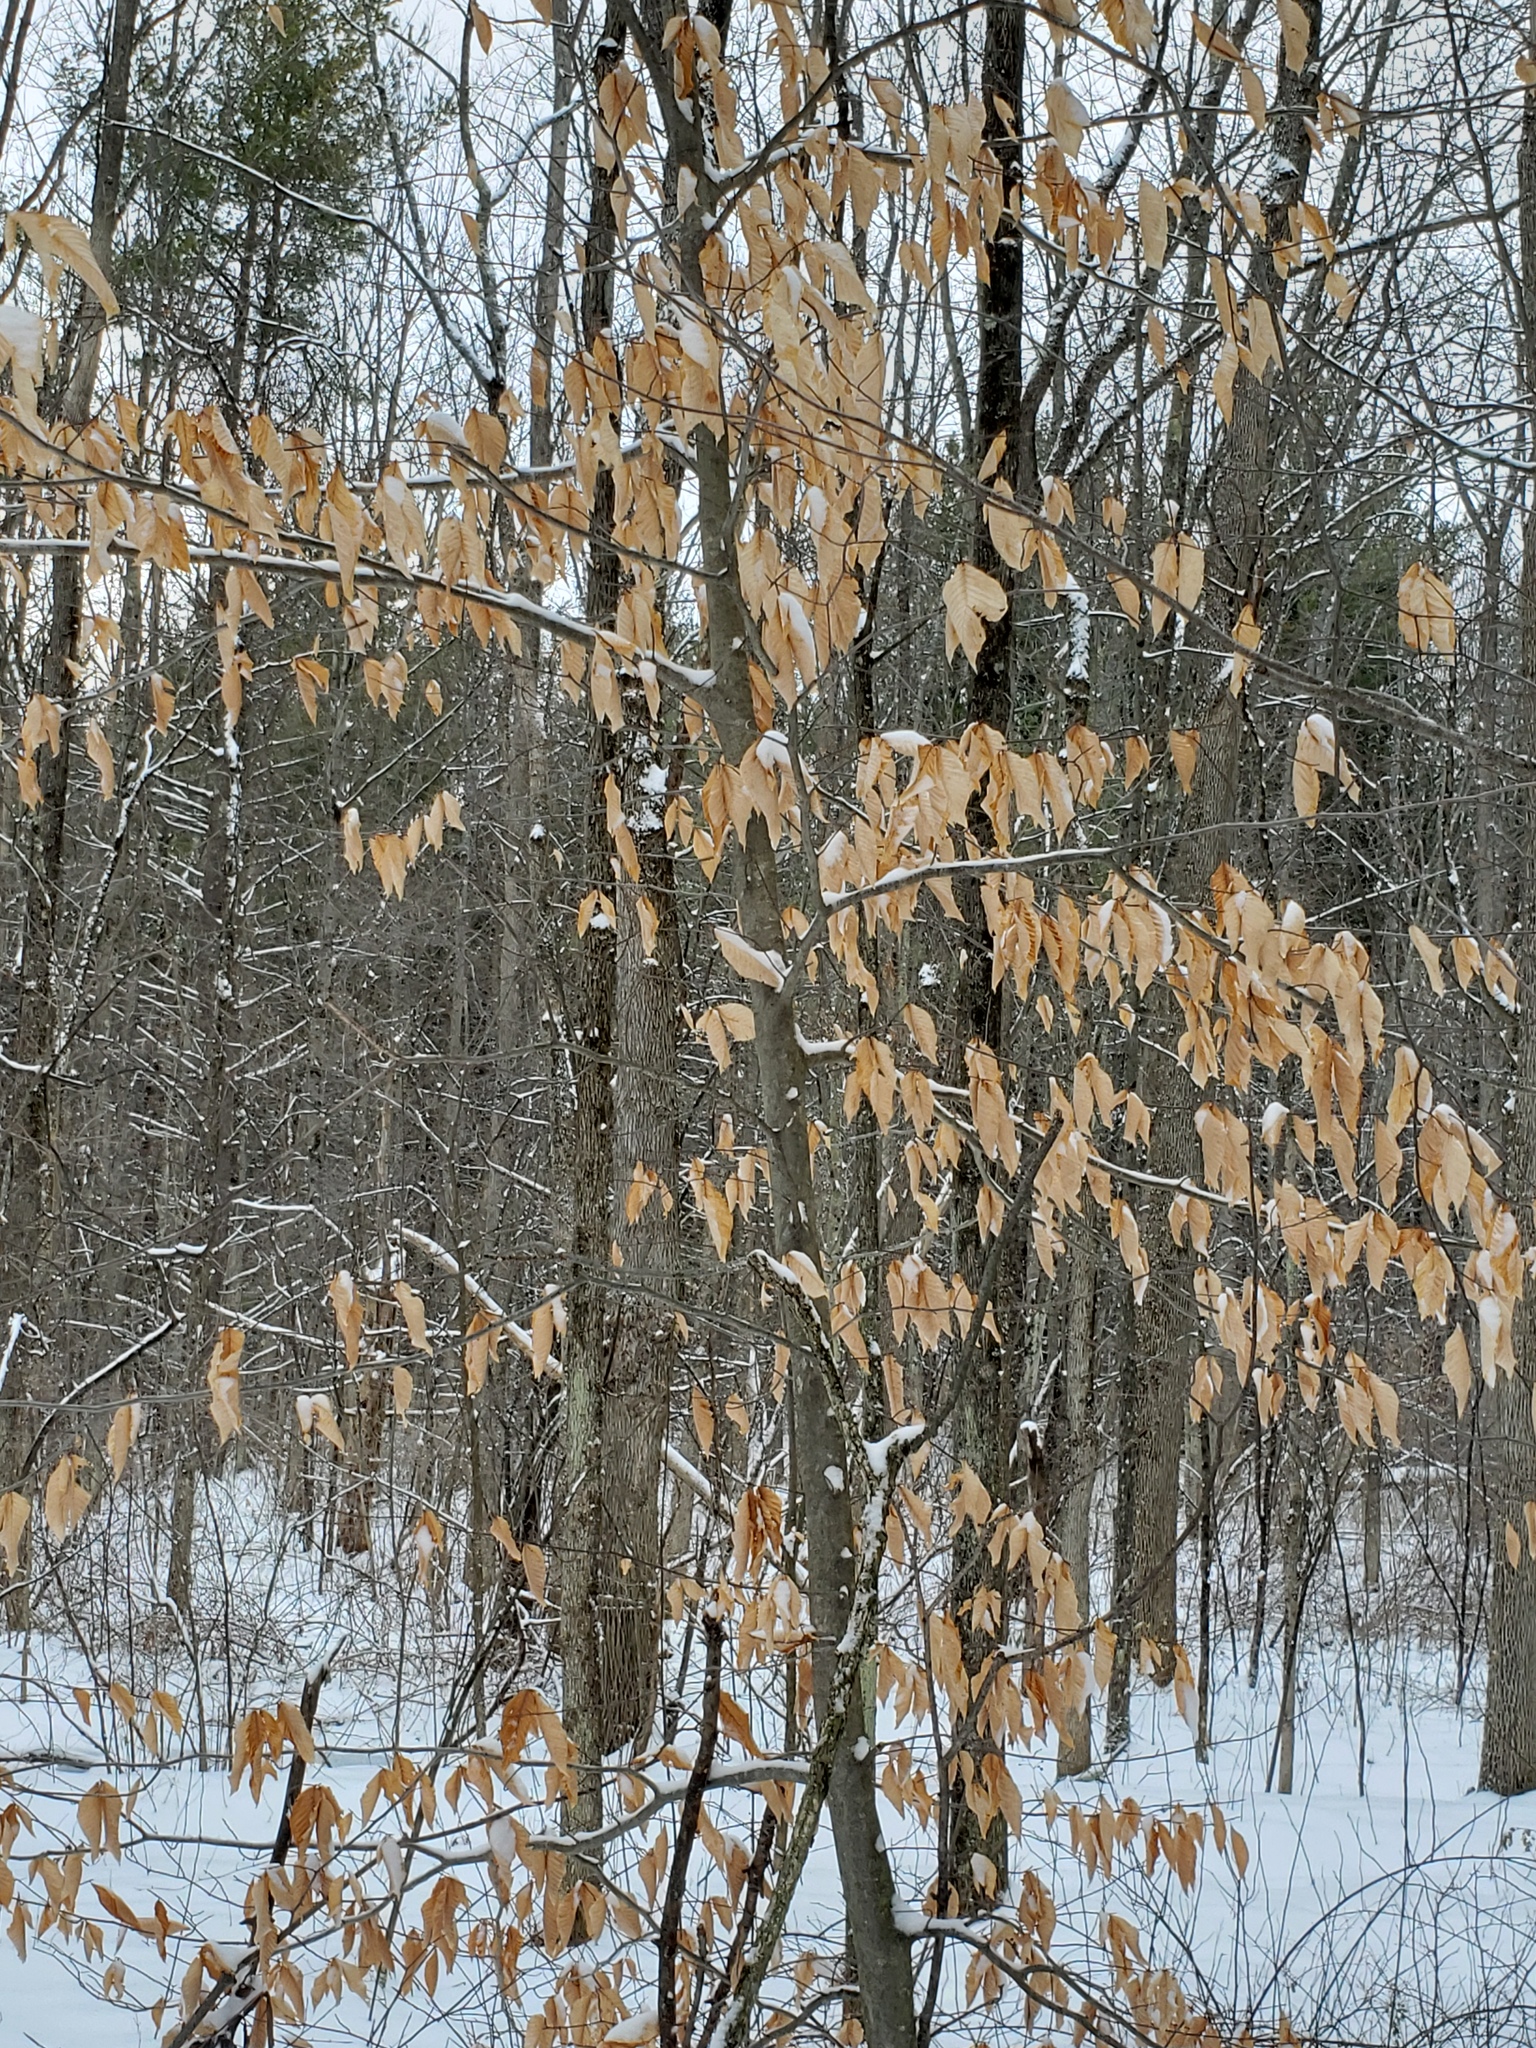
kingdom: Plantae
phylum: Tracheophyta
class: Magnoliopsida
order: Fagales
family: Fagaceae
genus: Fagus
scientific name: Fagus grandifolia
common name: American beech
